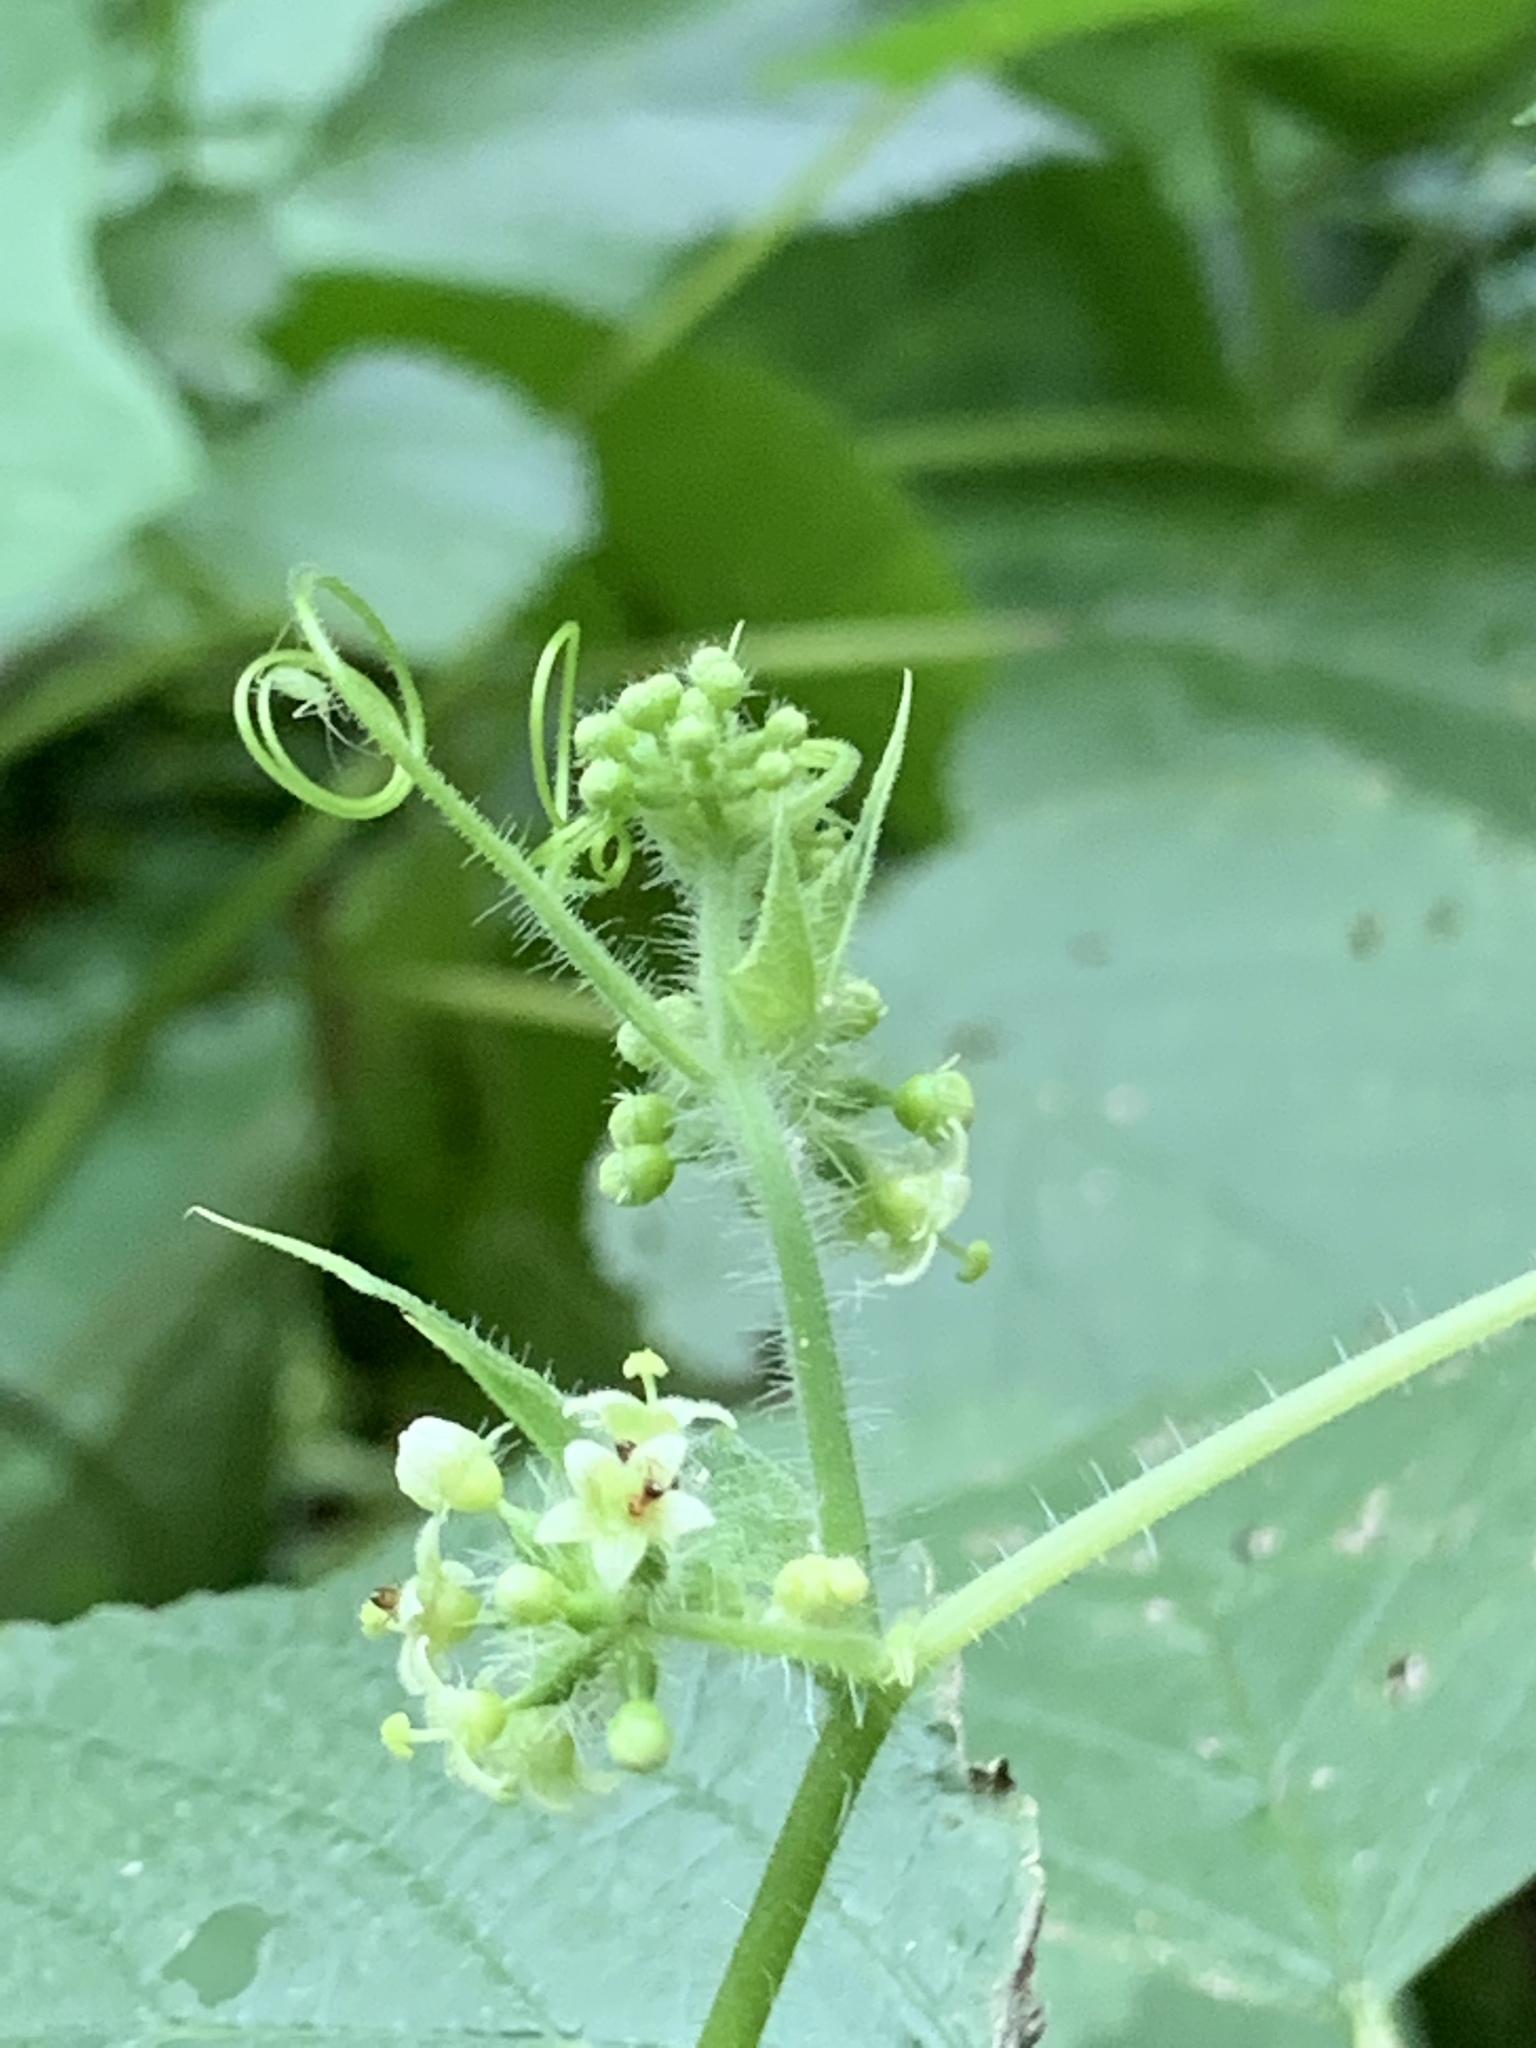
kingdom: Plantae
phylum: Tracheophyta
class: Magnoliopsida
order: Cucurbitales
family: Cucurbitaceae
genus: Sicyos
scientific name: Sicyos angulatus
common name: Angled burr cucumber
